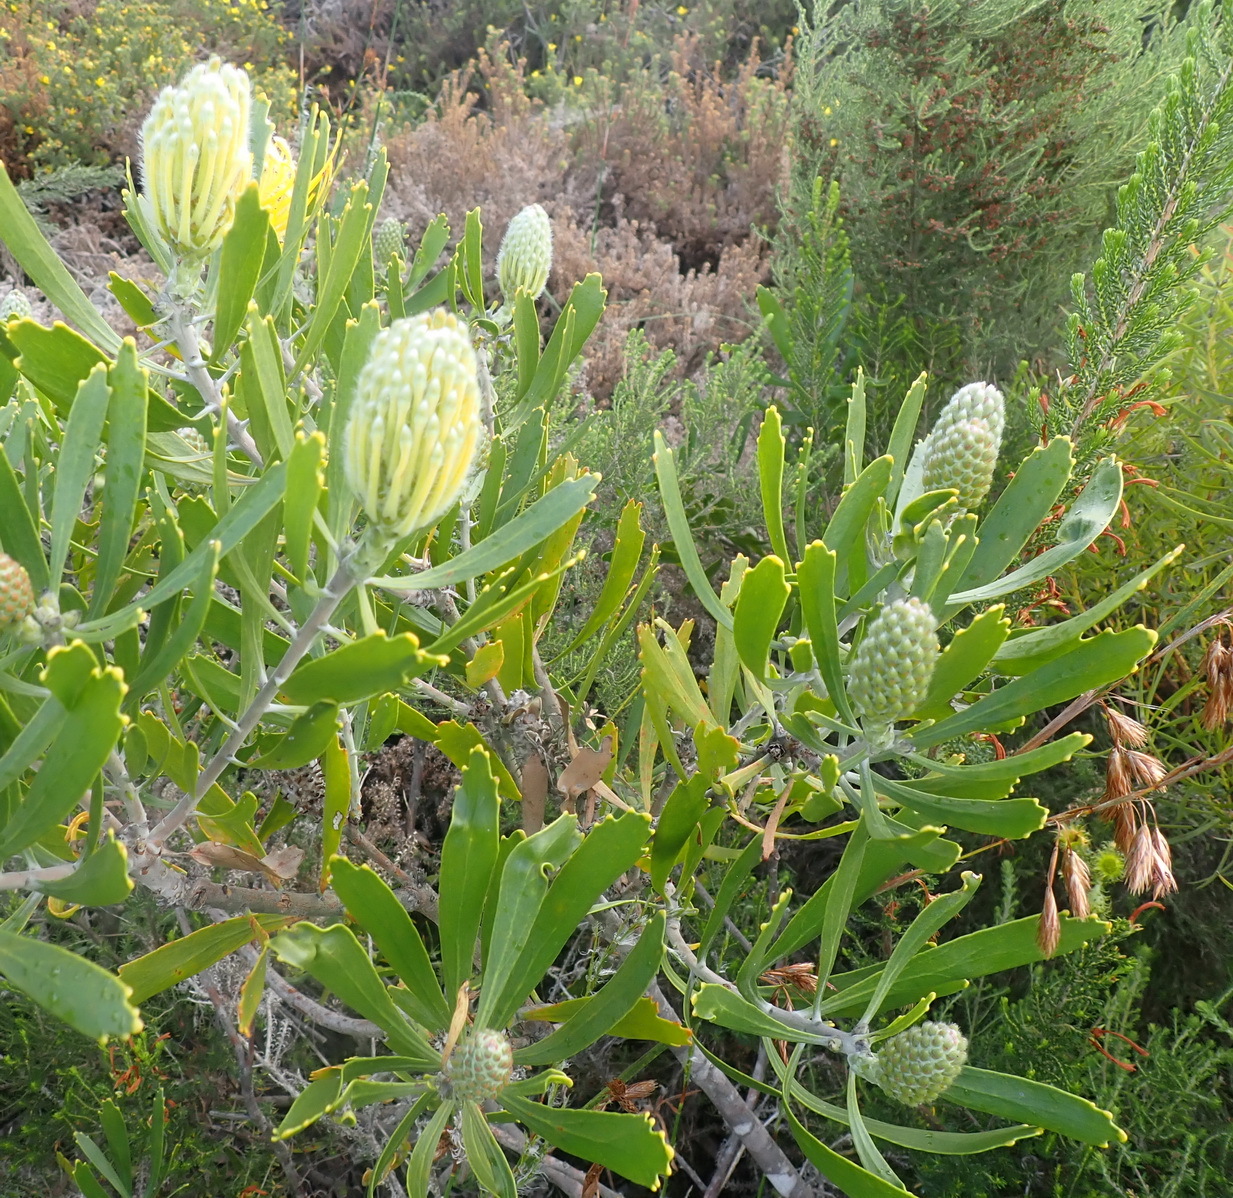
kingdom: Plantae
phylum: Tracheophyta
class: Magnoliopsida
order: Proteales
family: Proteaceae
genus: Leucospermum
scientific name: Leucospermum cuneiforme
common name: Common pincushion
